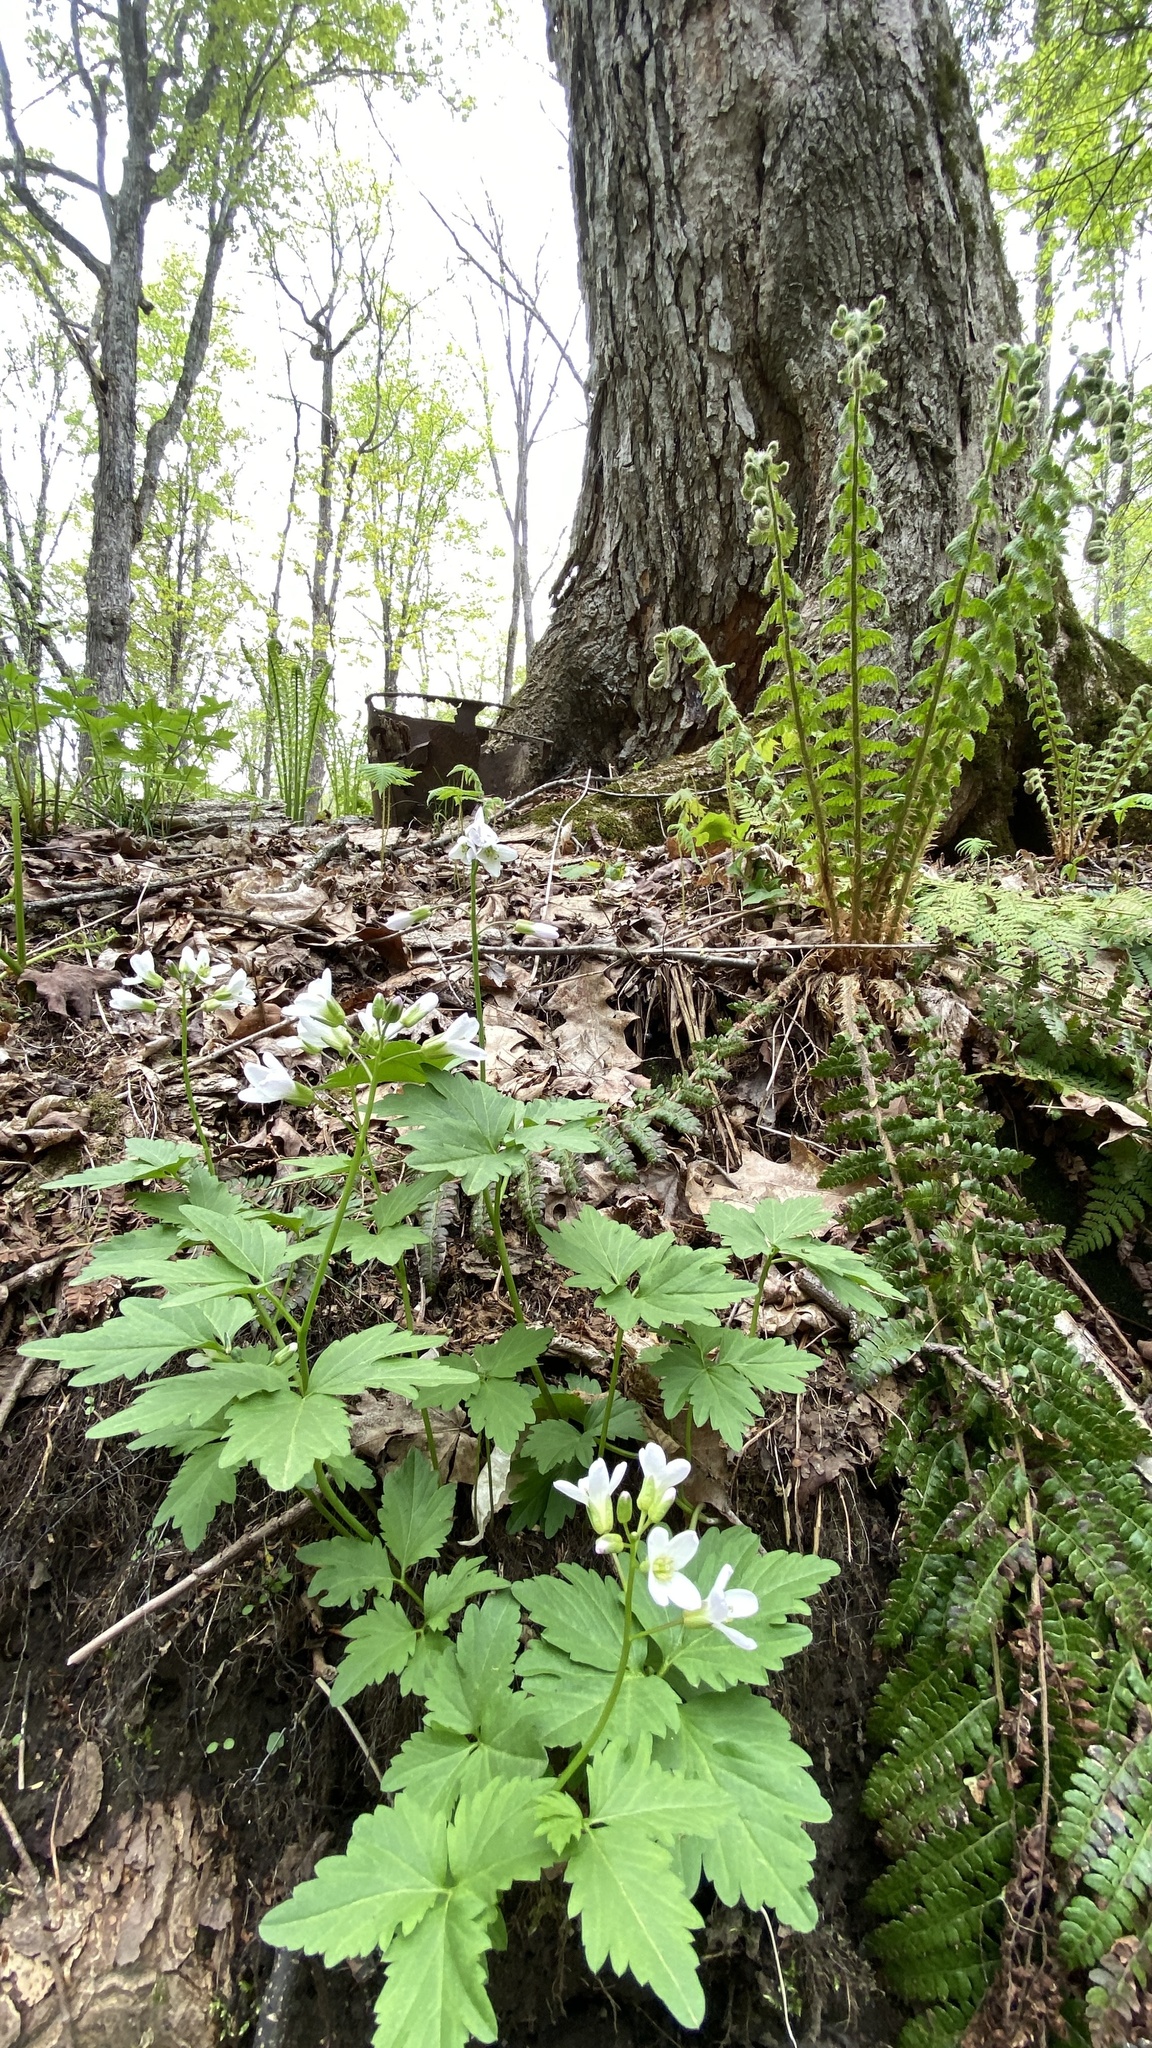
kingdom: Plantae
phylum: Tracheophyta
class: Magnoliopsida
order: Brassicales
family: Brassicaceae
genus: Cardamine
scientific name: Cardamine diphylla
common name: Broad-leaved toothwort
